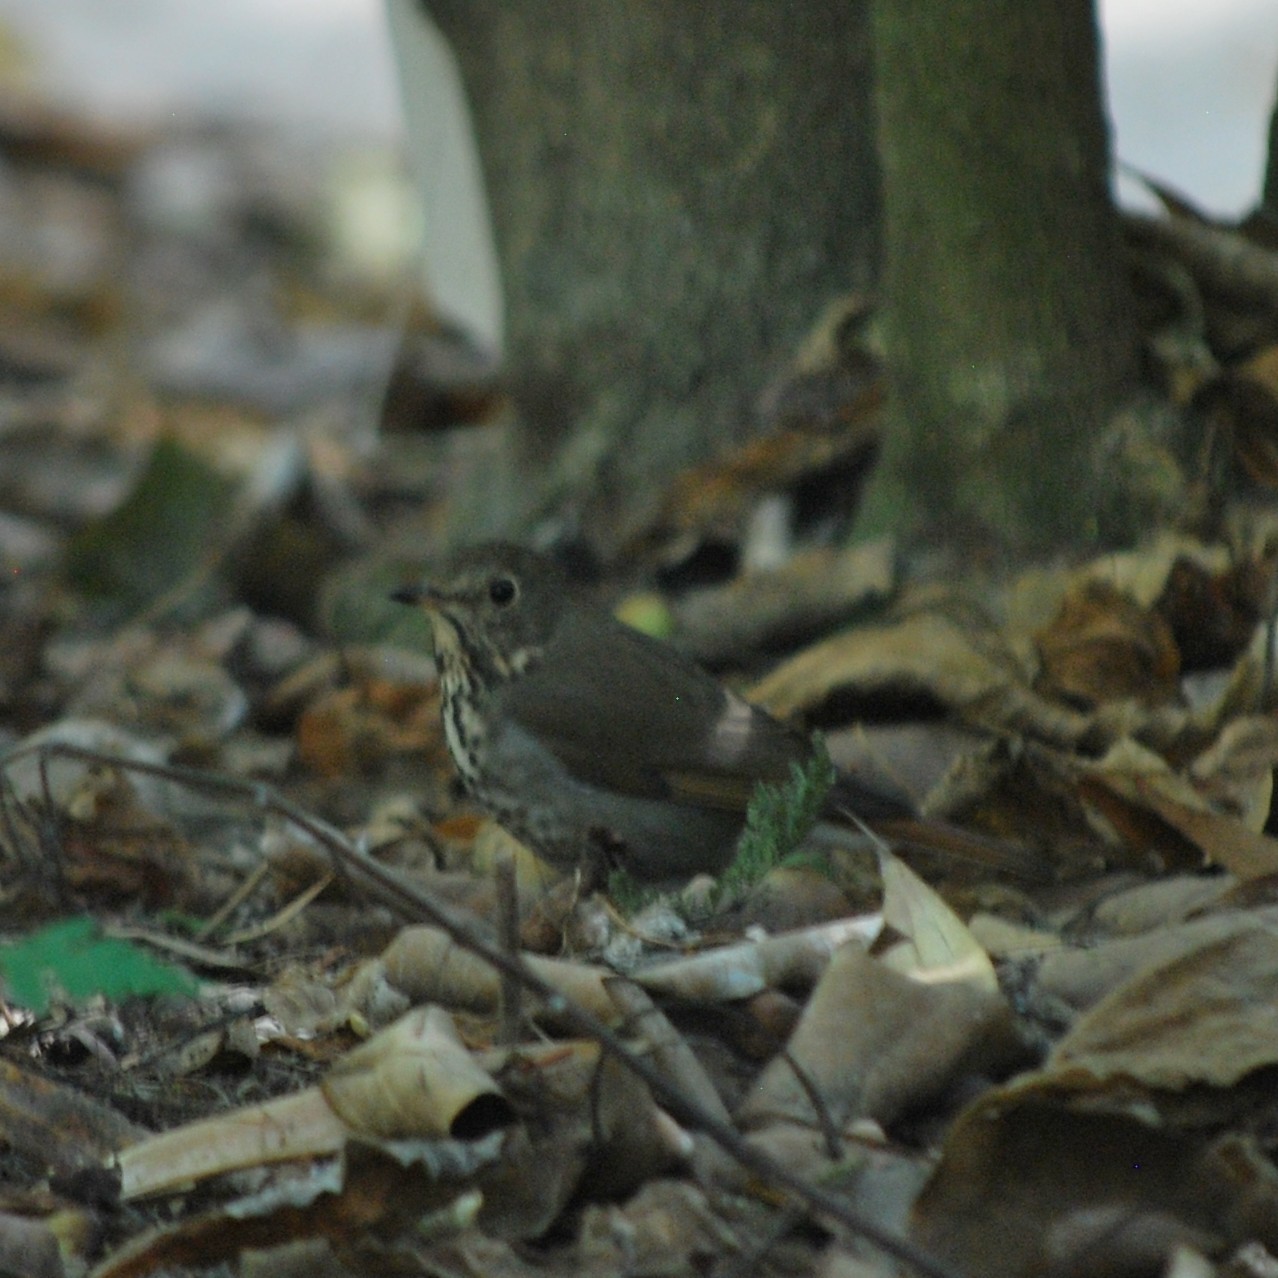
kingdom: Animalia
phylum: Chordata
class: Aves
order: Passeriformes
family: Turdidae
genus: Catharus
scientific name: Catharus guttatus
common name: Hermit thrush
